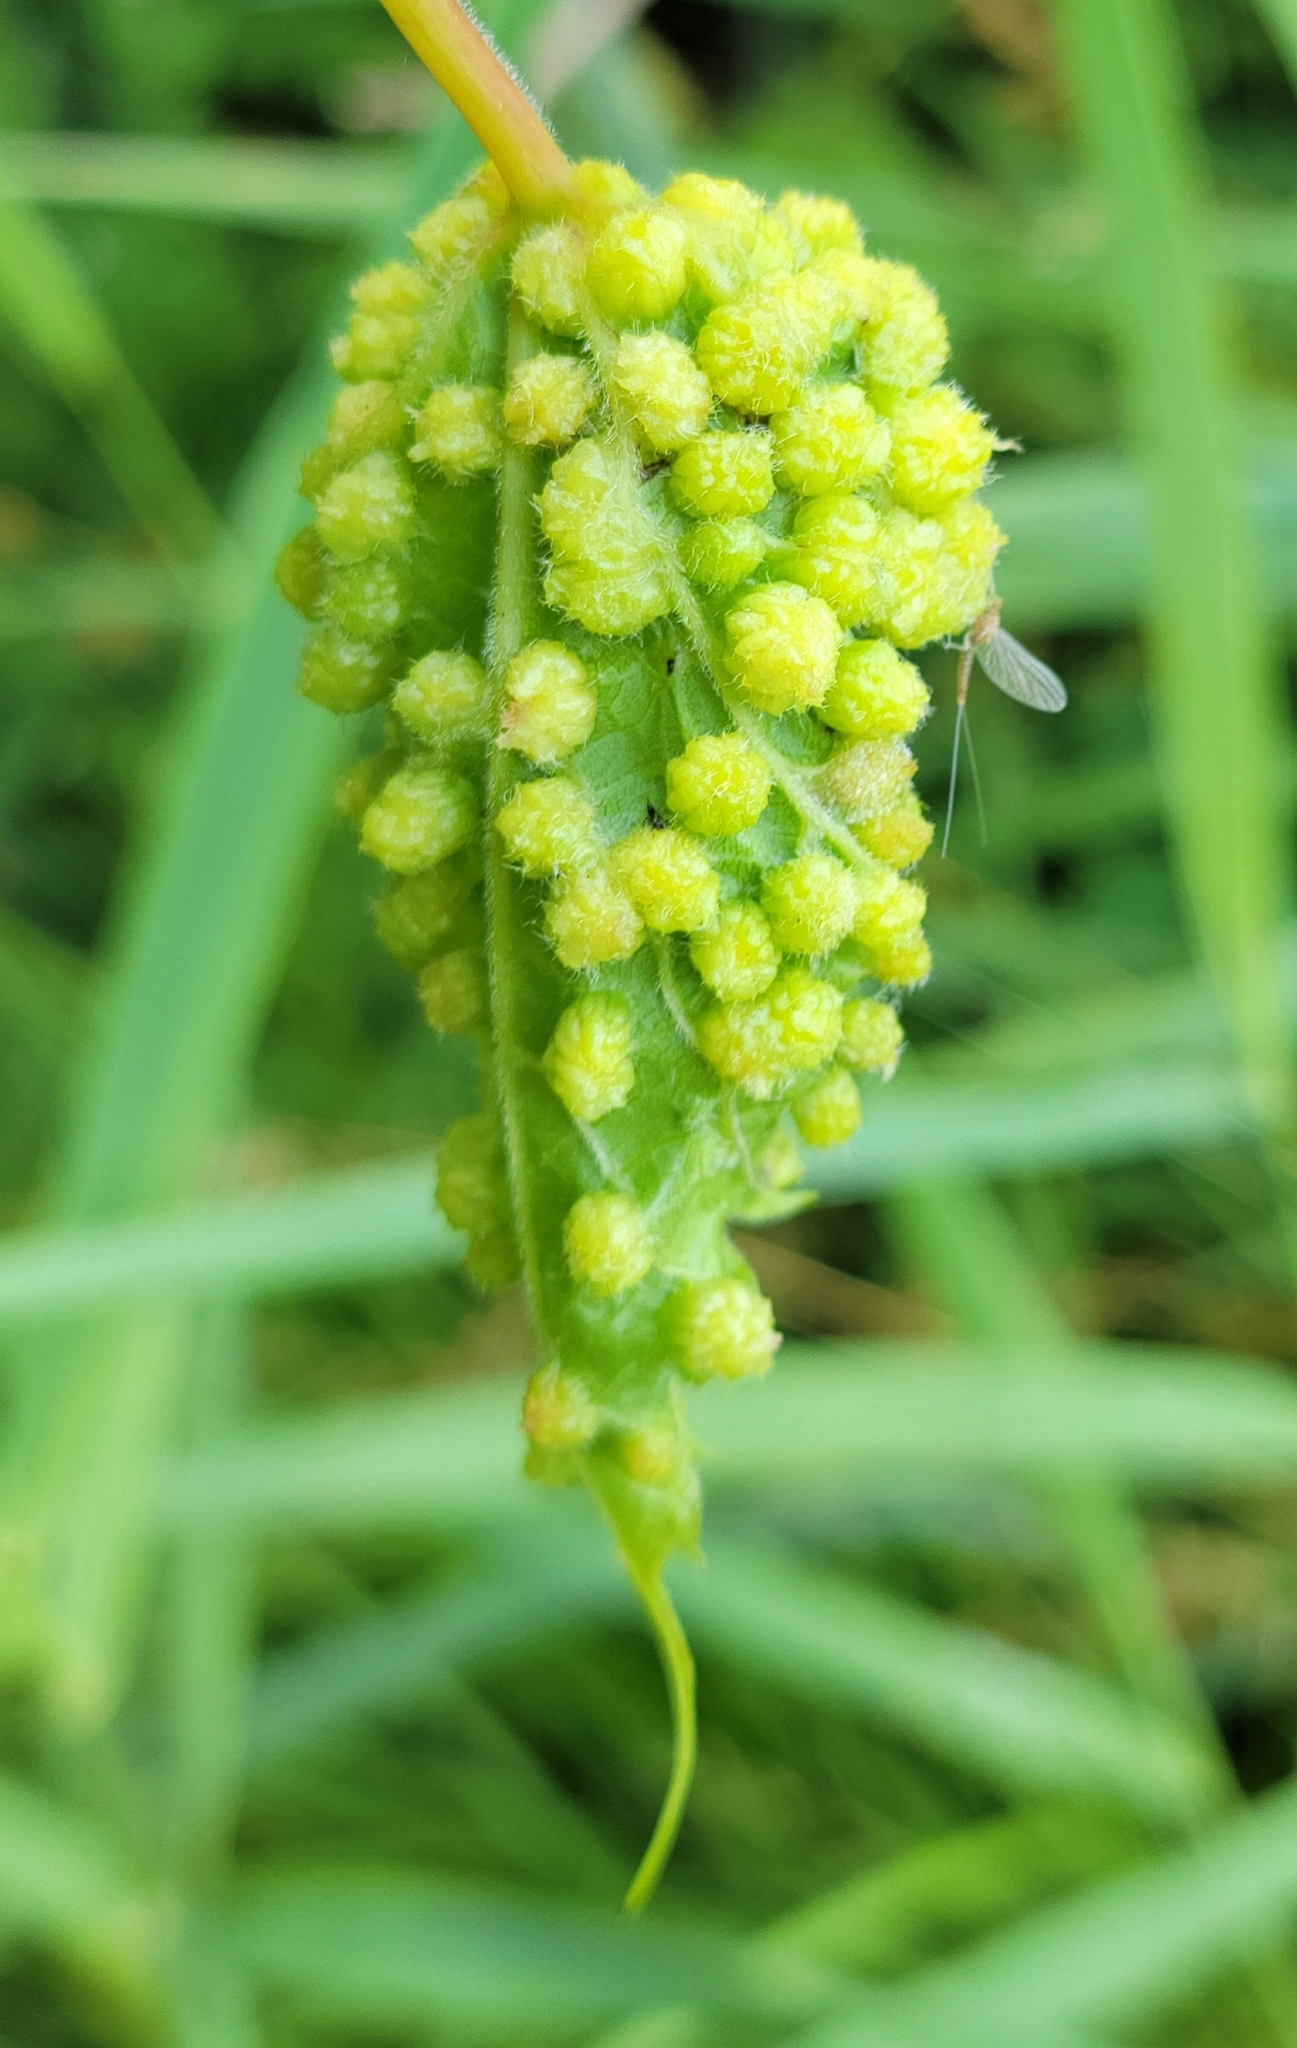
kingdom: Animalia
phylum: Arthropoda
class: Insecta
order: Hemiptera
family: Phylloxeridae
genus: Daktulosphaira
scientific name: Daktulosphaira vitifoliae
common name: Grape phylloxera
